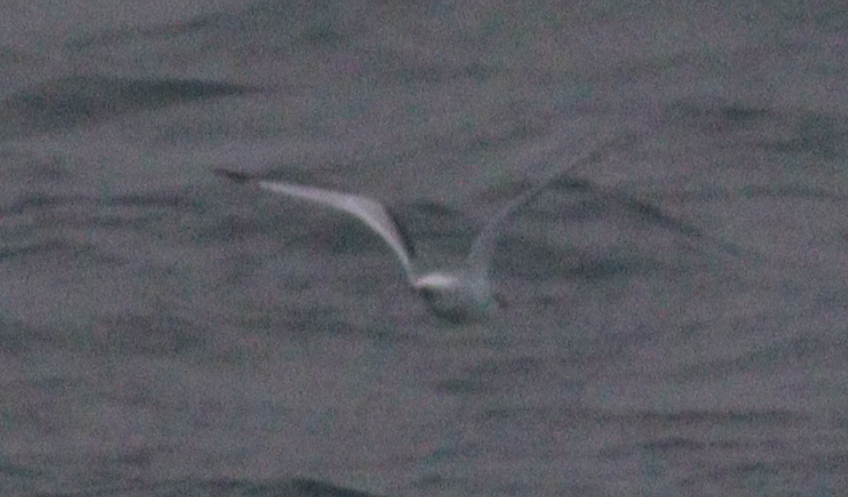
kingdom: Animalia
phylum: Chordata
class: Aves
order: Charadriiformes
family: Laridae
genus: Rissa
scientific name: Rissa tridactyla
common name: Black-legged kittiwake
